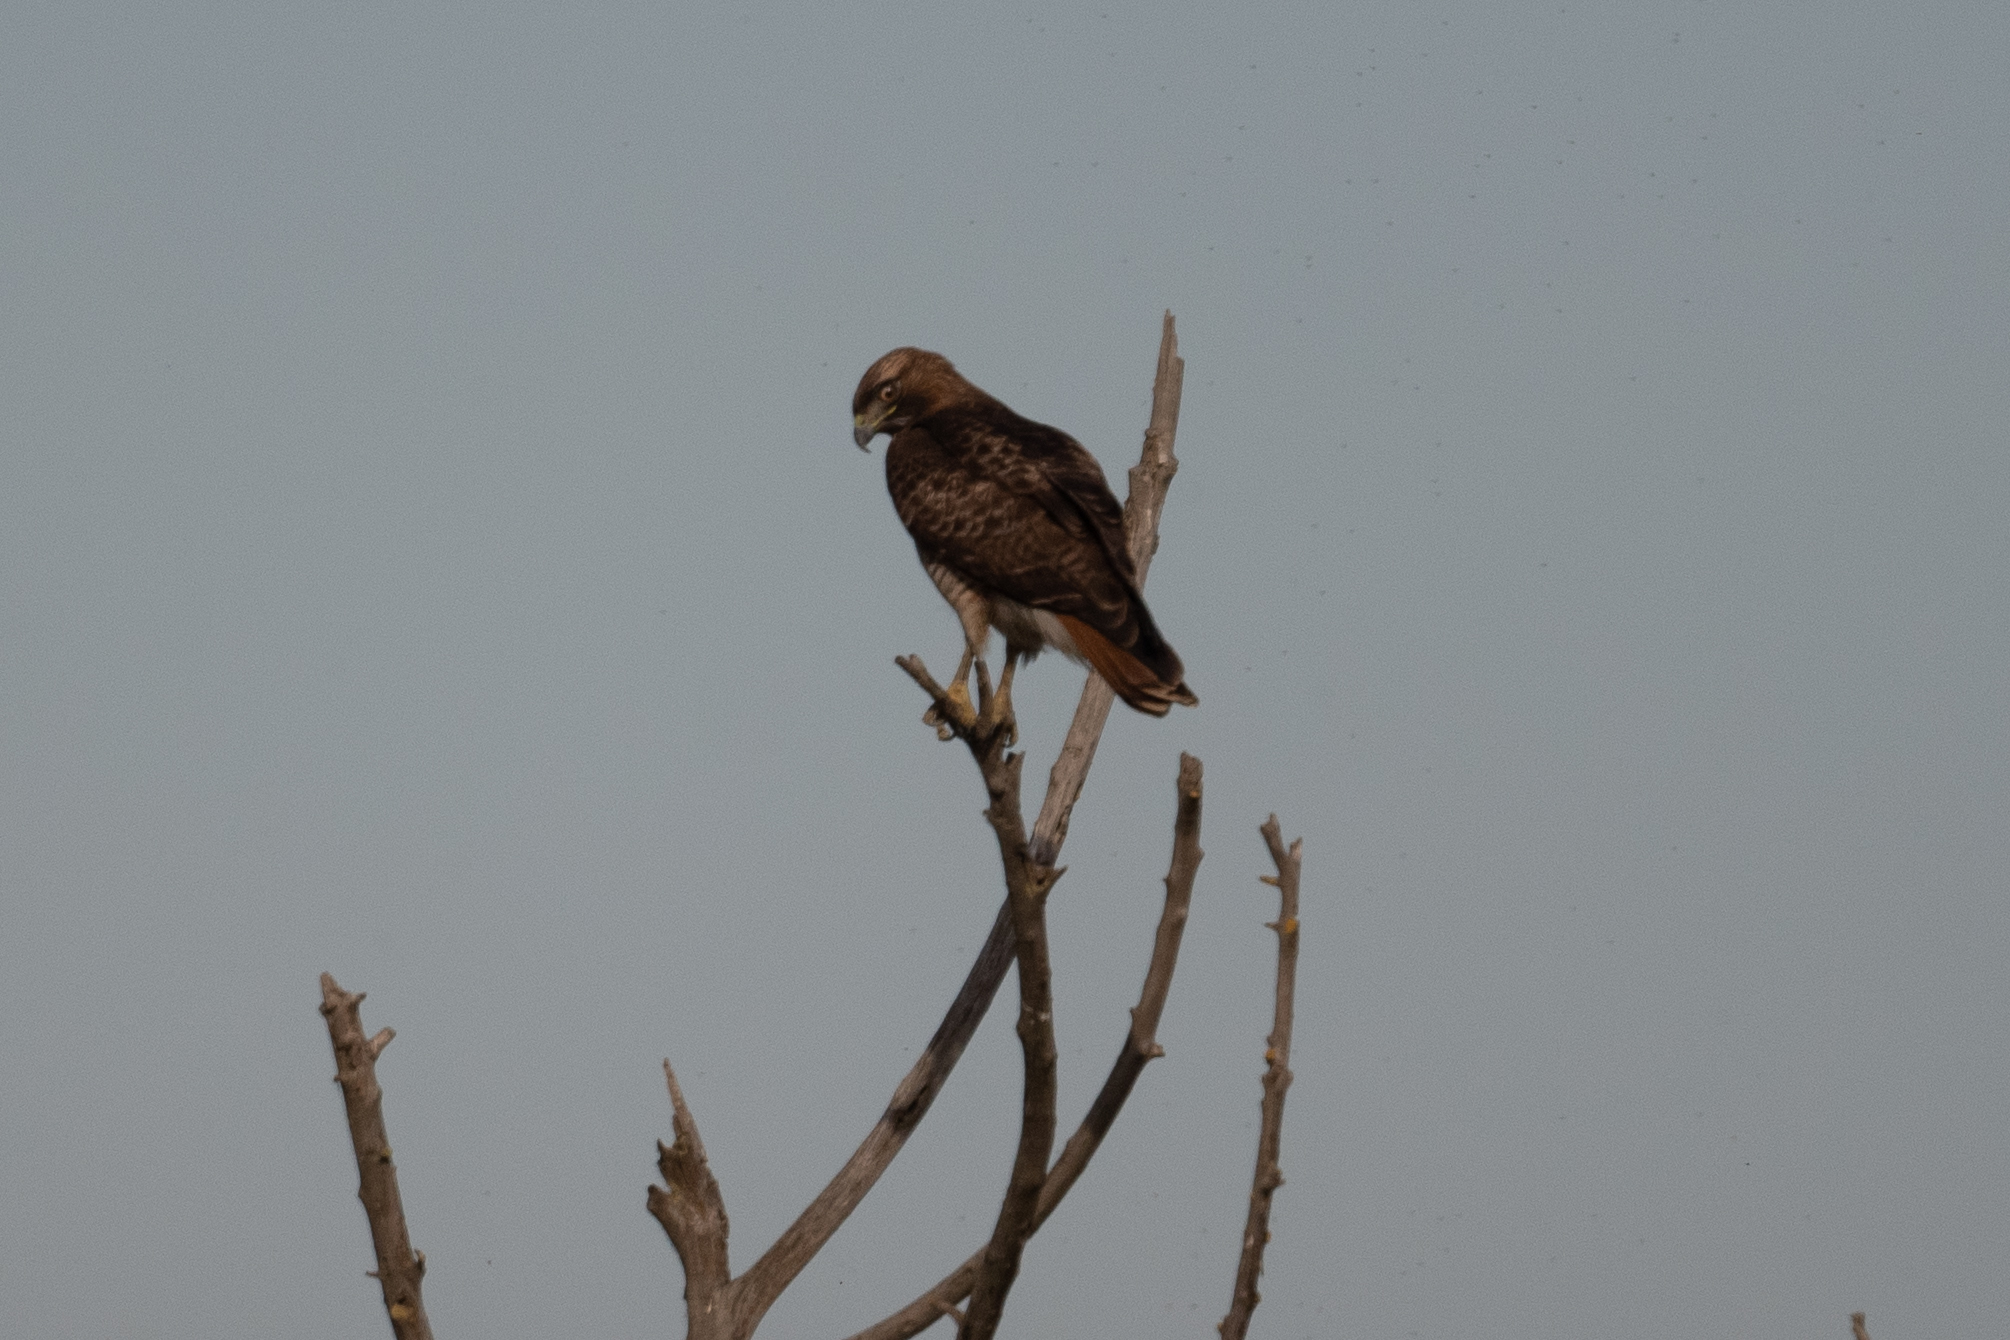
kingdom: Animalia
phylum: Chordata
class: Aves
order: Accipitriformes
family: Accipitridae
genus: Buteo
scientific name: Buteo jamaicensis
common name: Red-tailed hawk
